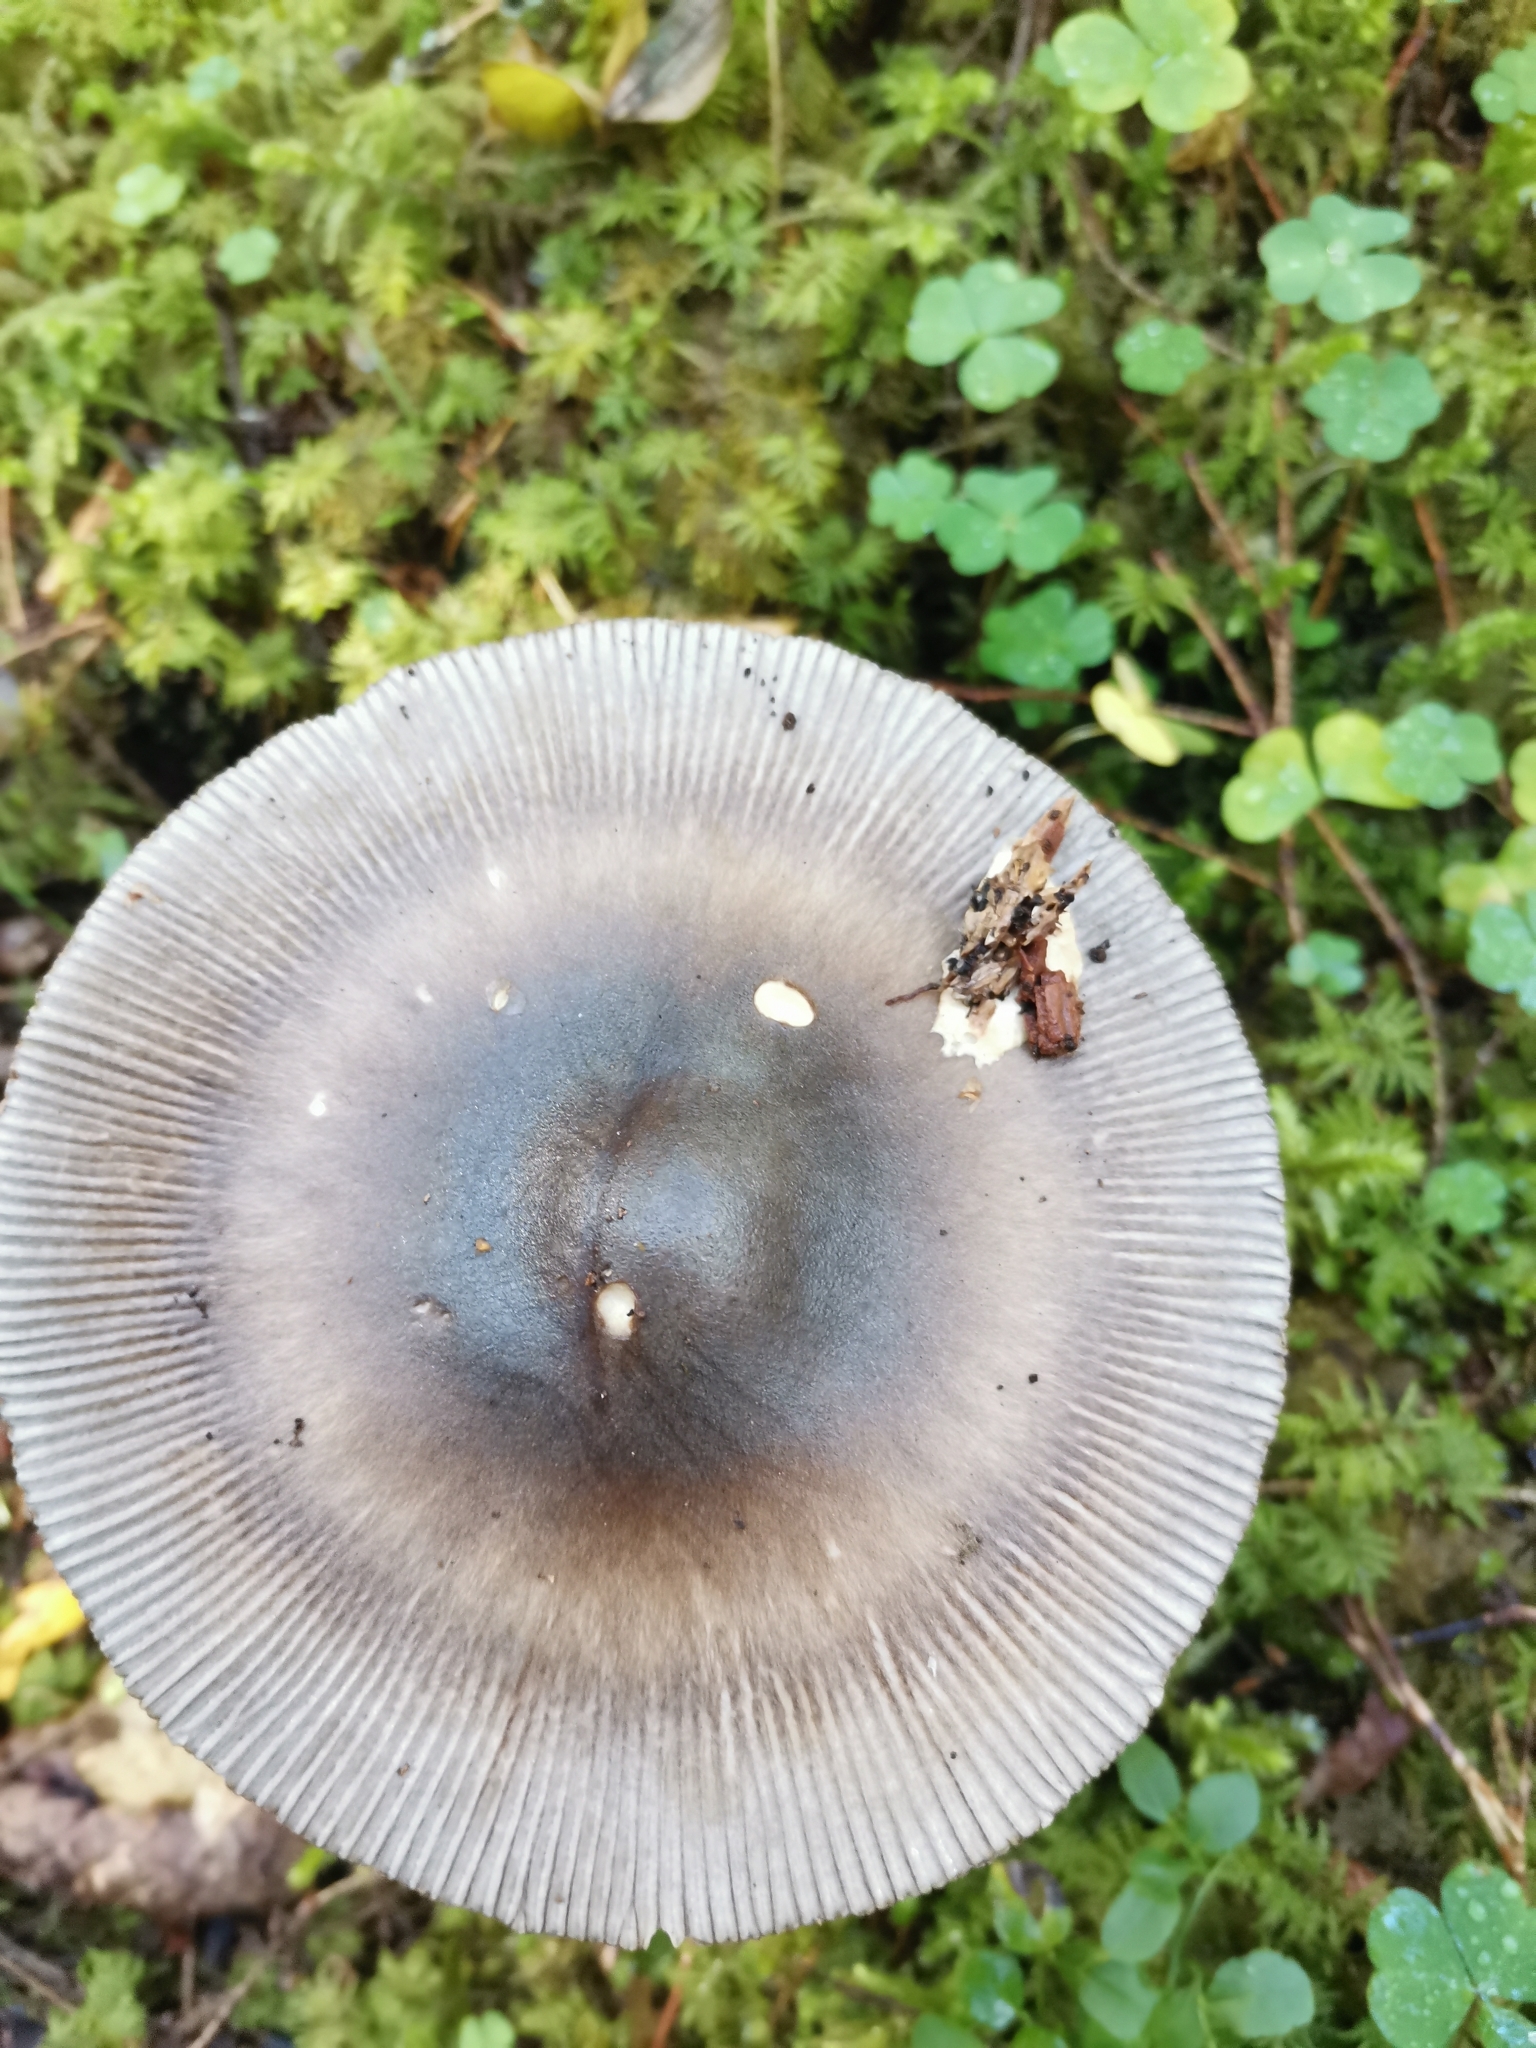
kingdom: Fungi
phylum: Basidiomycota
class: Agaricomycetes
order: Agaricales
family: Amanitaceae
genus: Amanita
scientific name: Amanita battarrae
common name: Banded amanita
